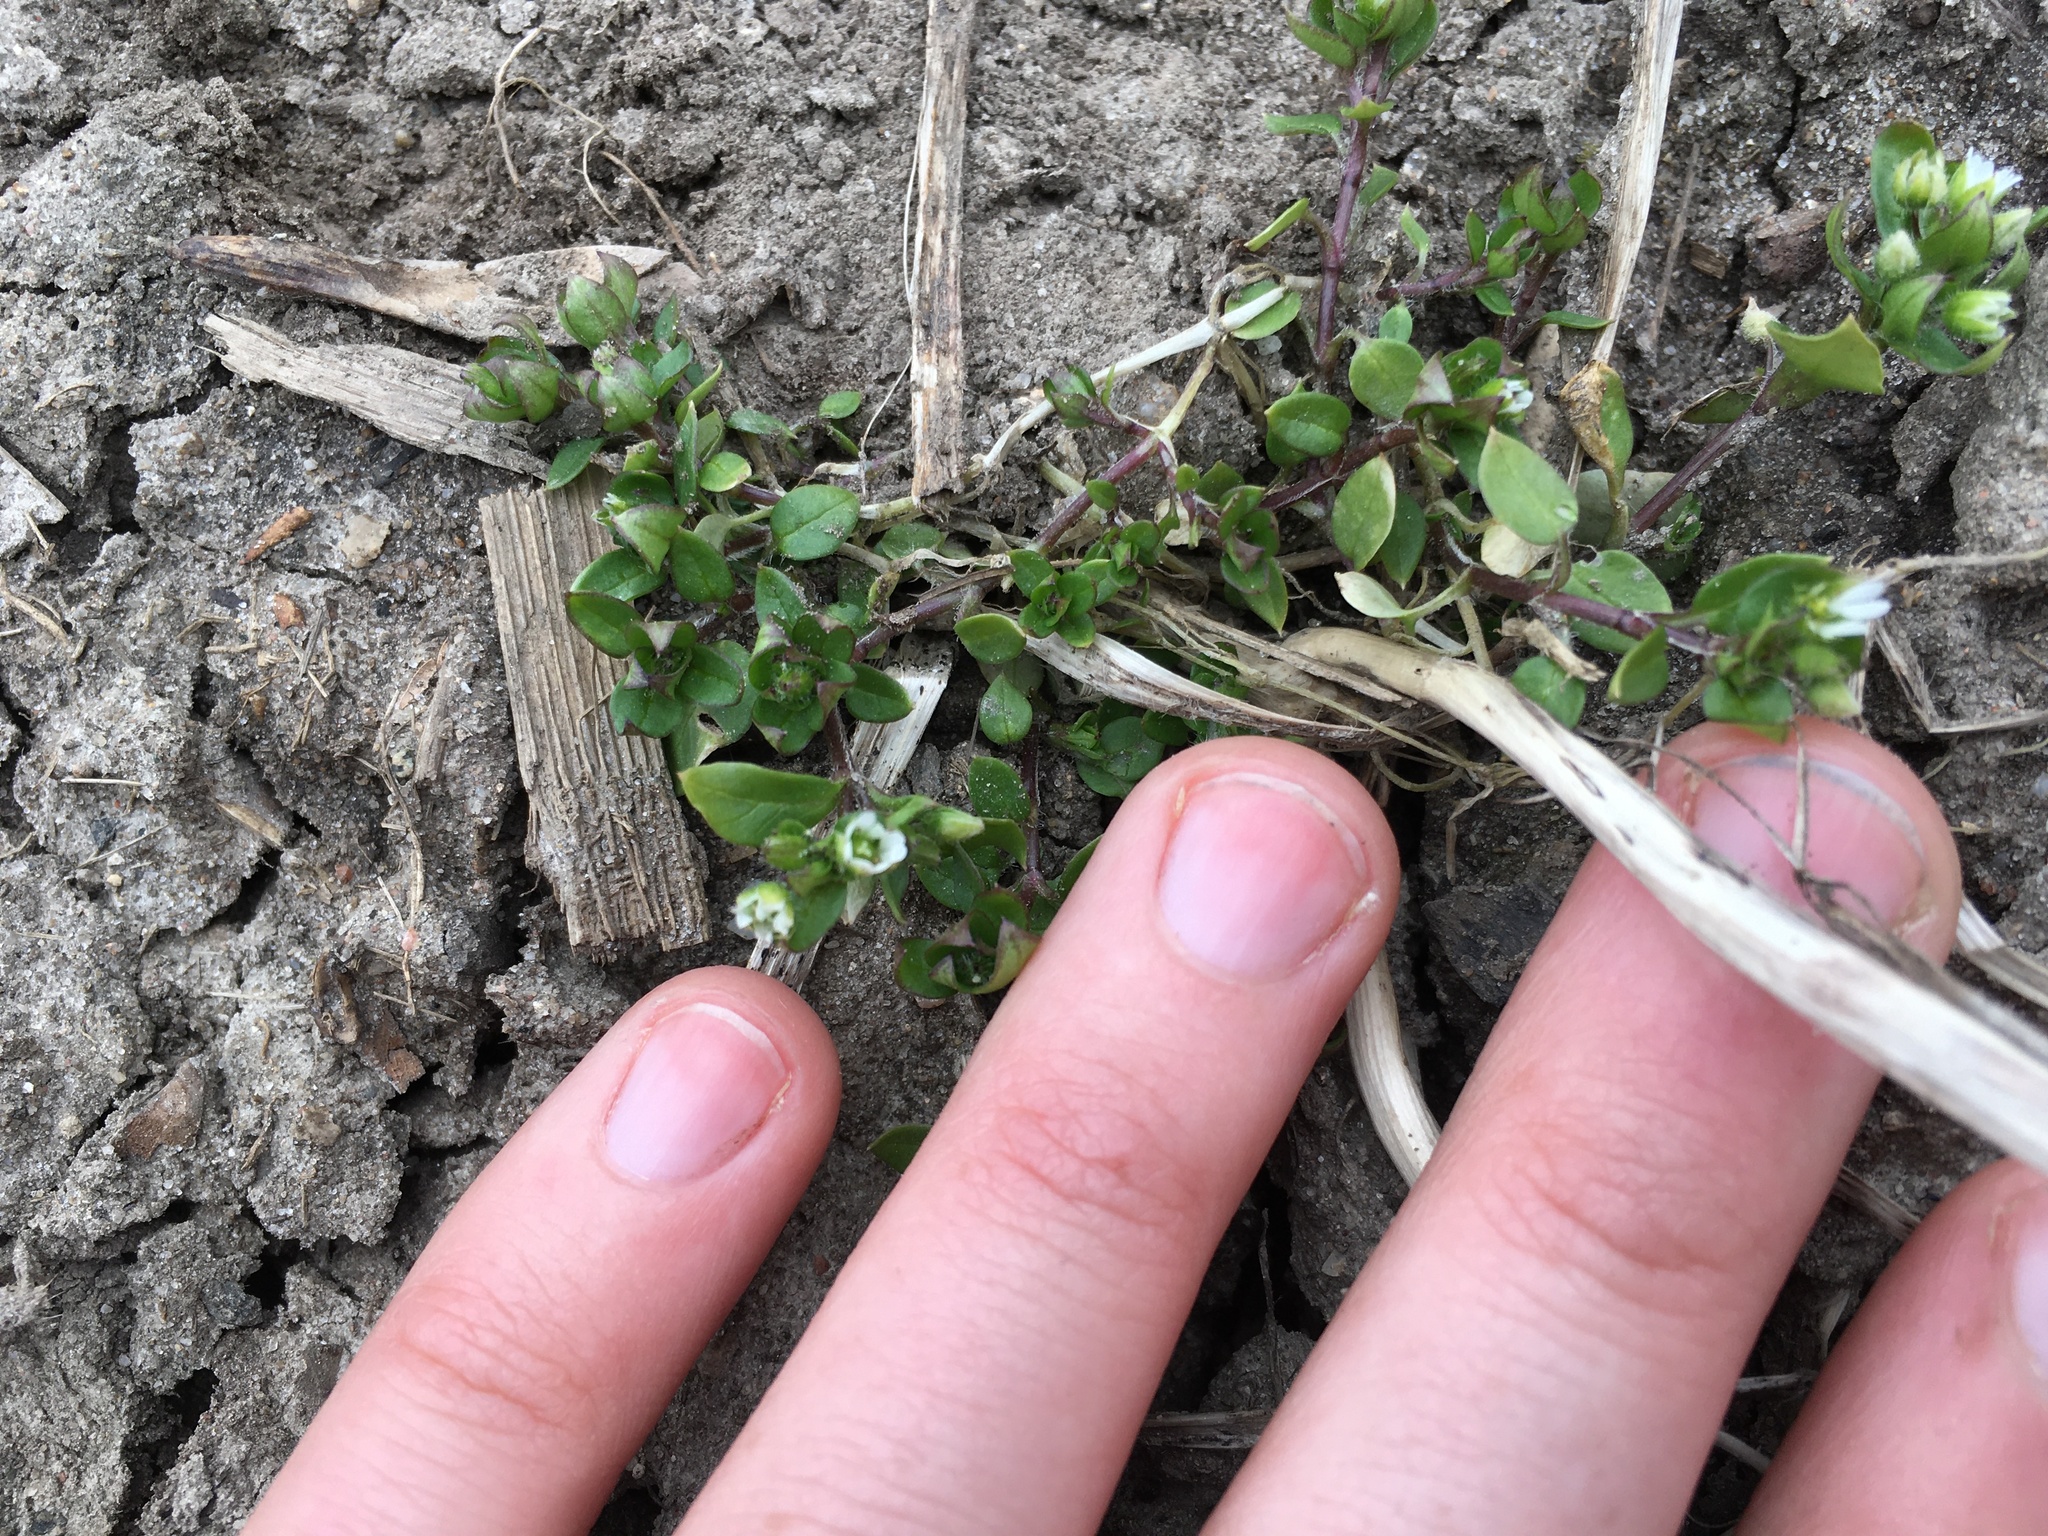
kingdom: Plantae
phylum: Tracheophyta
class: Magnoliopsida
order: Caryophyllales
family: Caryophyllaceae
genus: Stellaria
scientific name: Stellaria media
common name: Common chickweed
